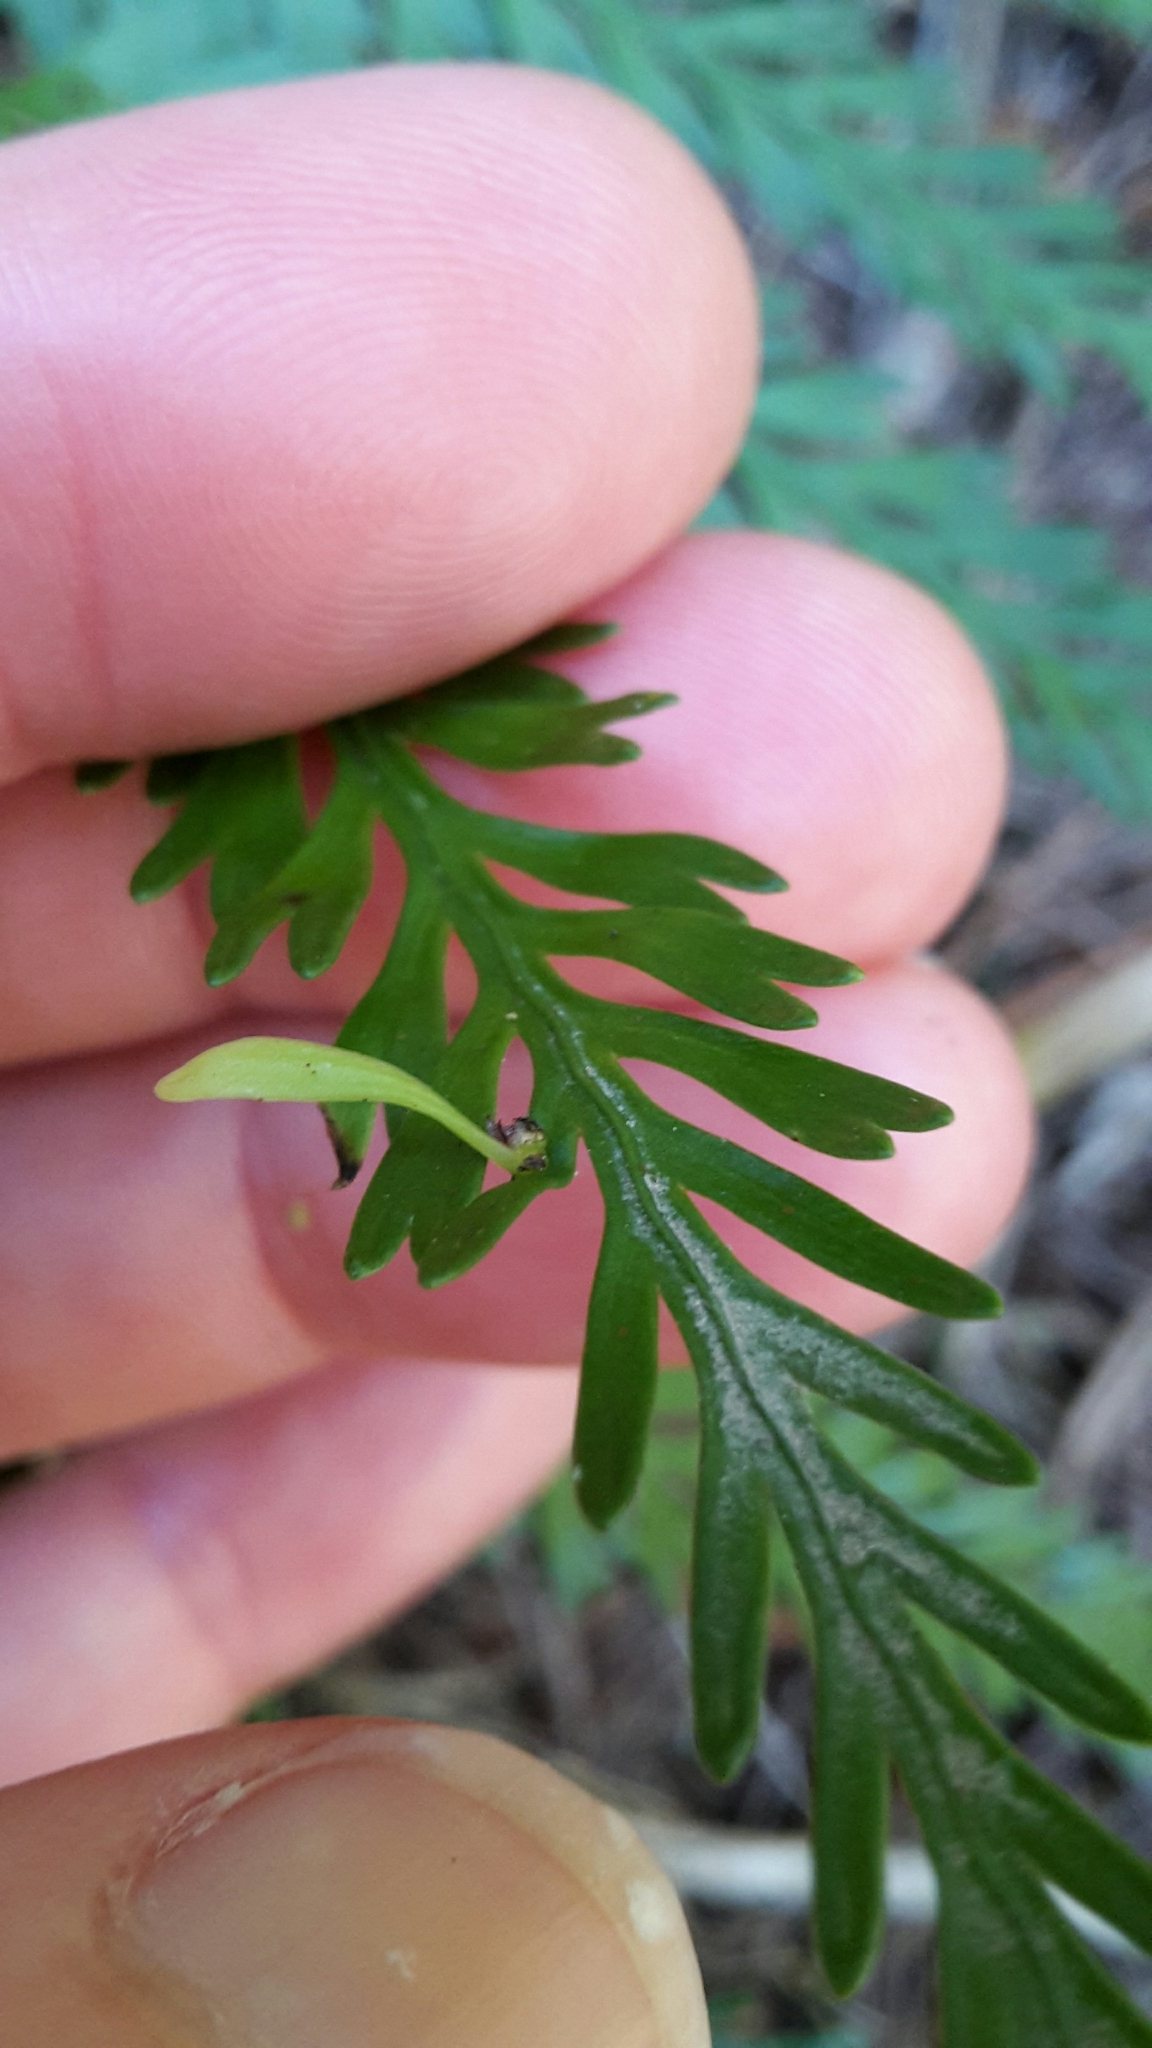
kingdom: Plantae
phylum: Tracheophyta
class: Polypodiopsida
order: Polypodiales
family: Aspleniaceae
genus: Asplenium
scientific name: Asplenium flaccidum
